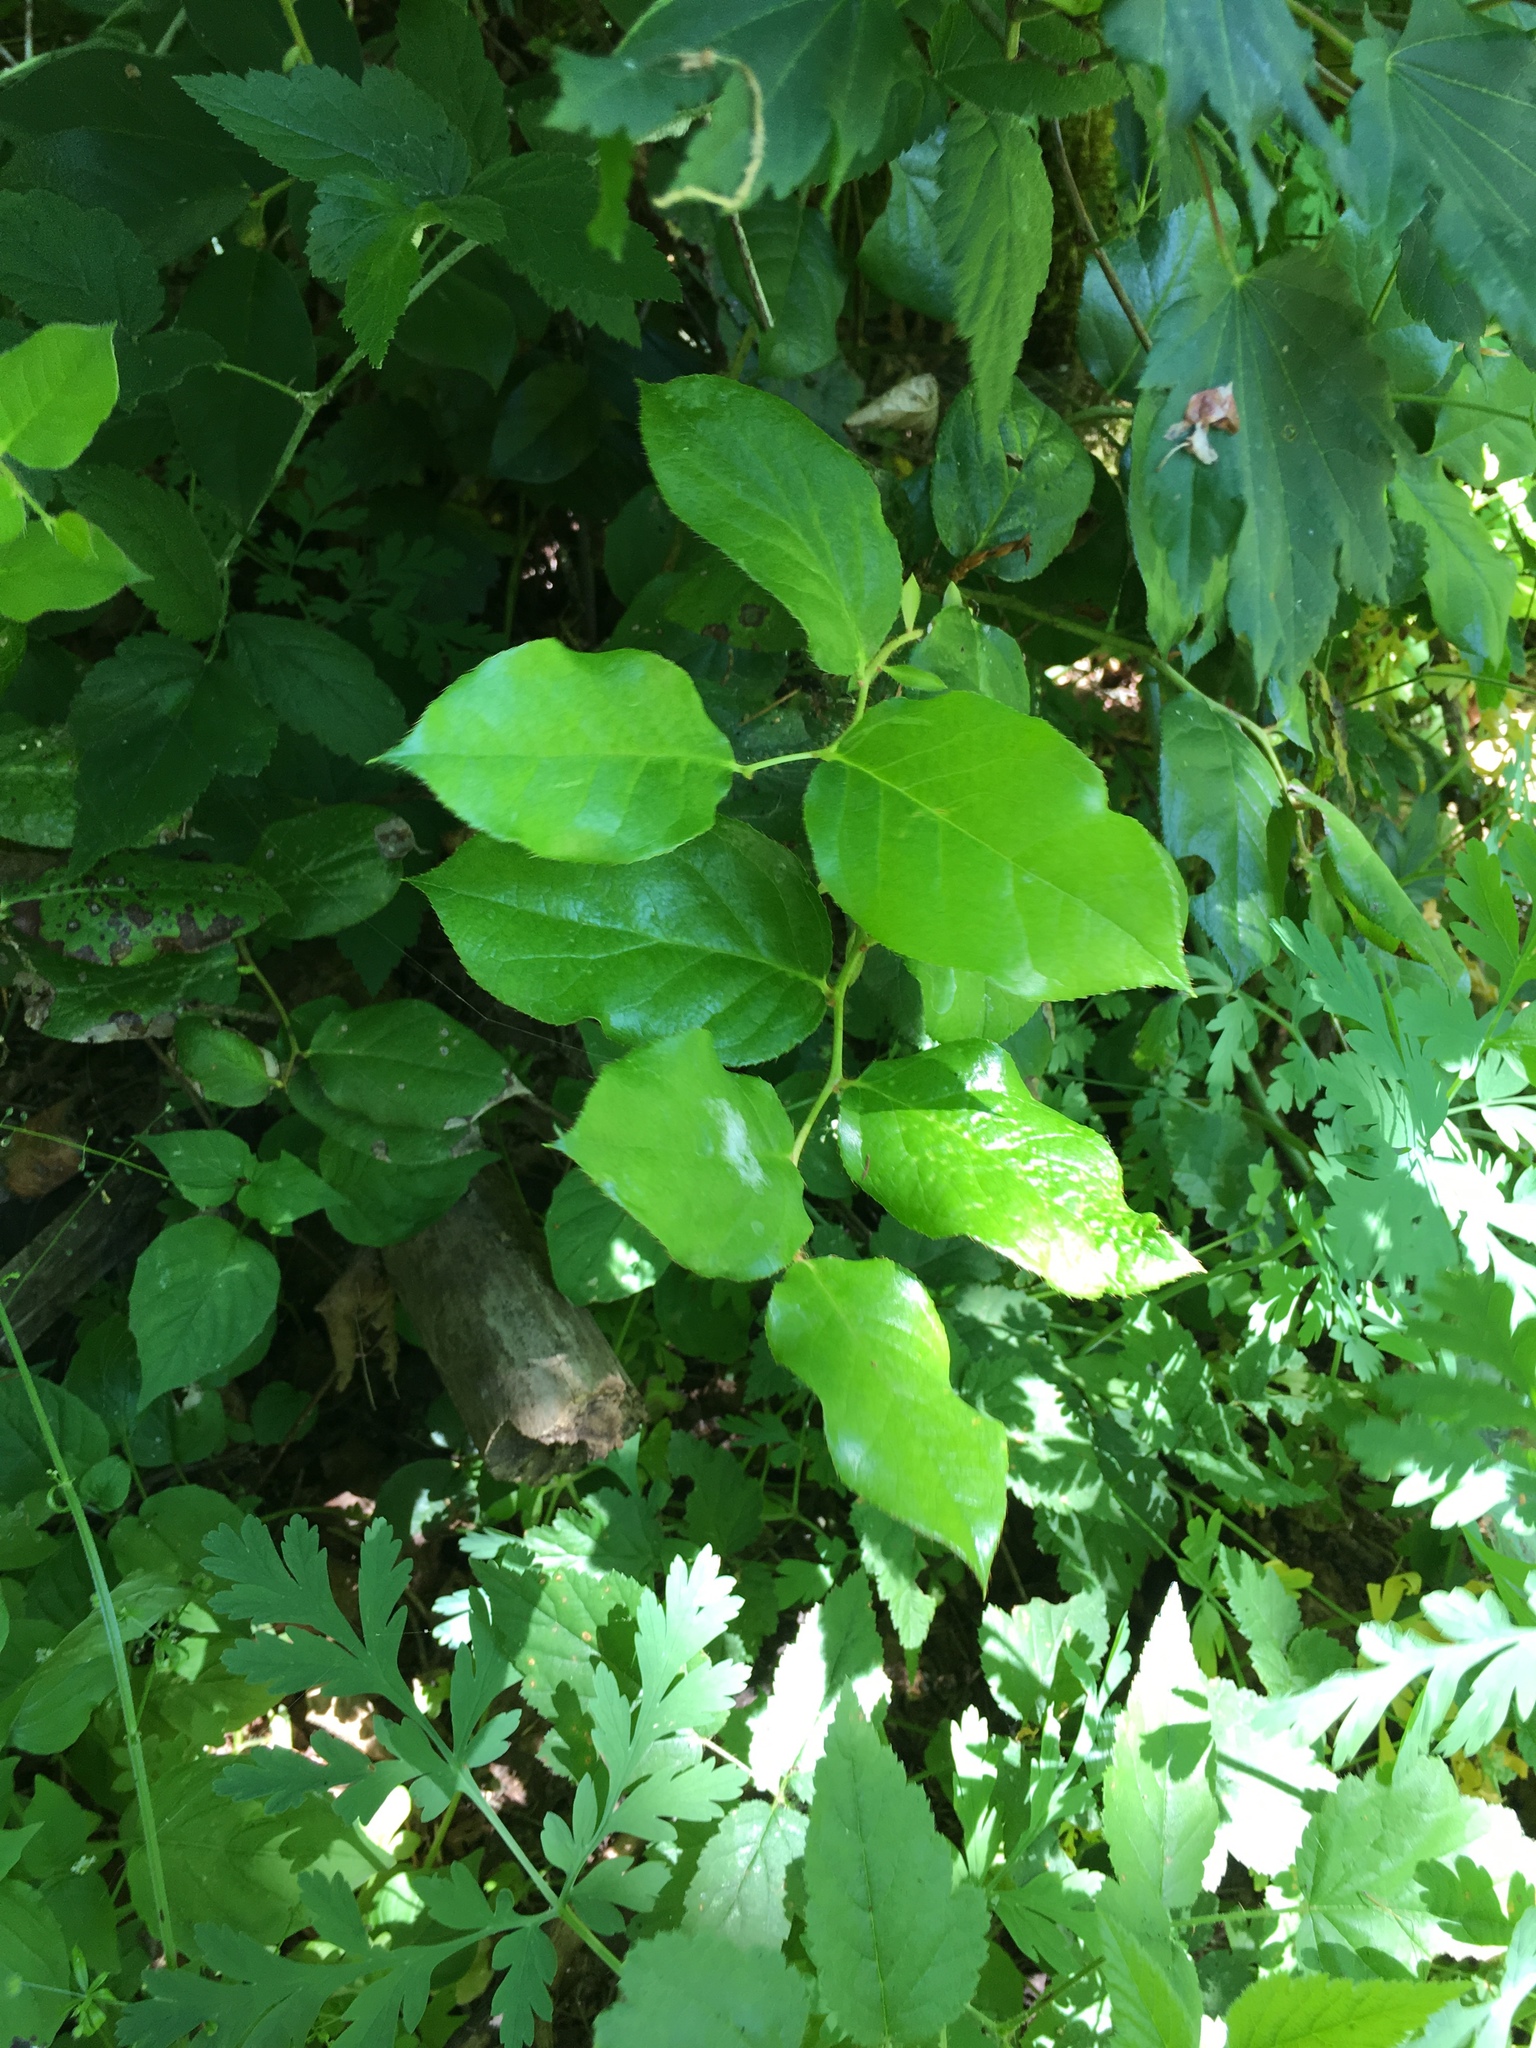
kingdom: Plantae
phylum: Tracheophyta
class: Magnoliopsida
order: Ericales
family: Ericaceae
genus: Gaultheria
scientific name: Gaultheria shallon
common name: Shallon
